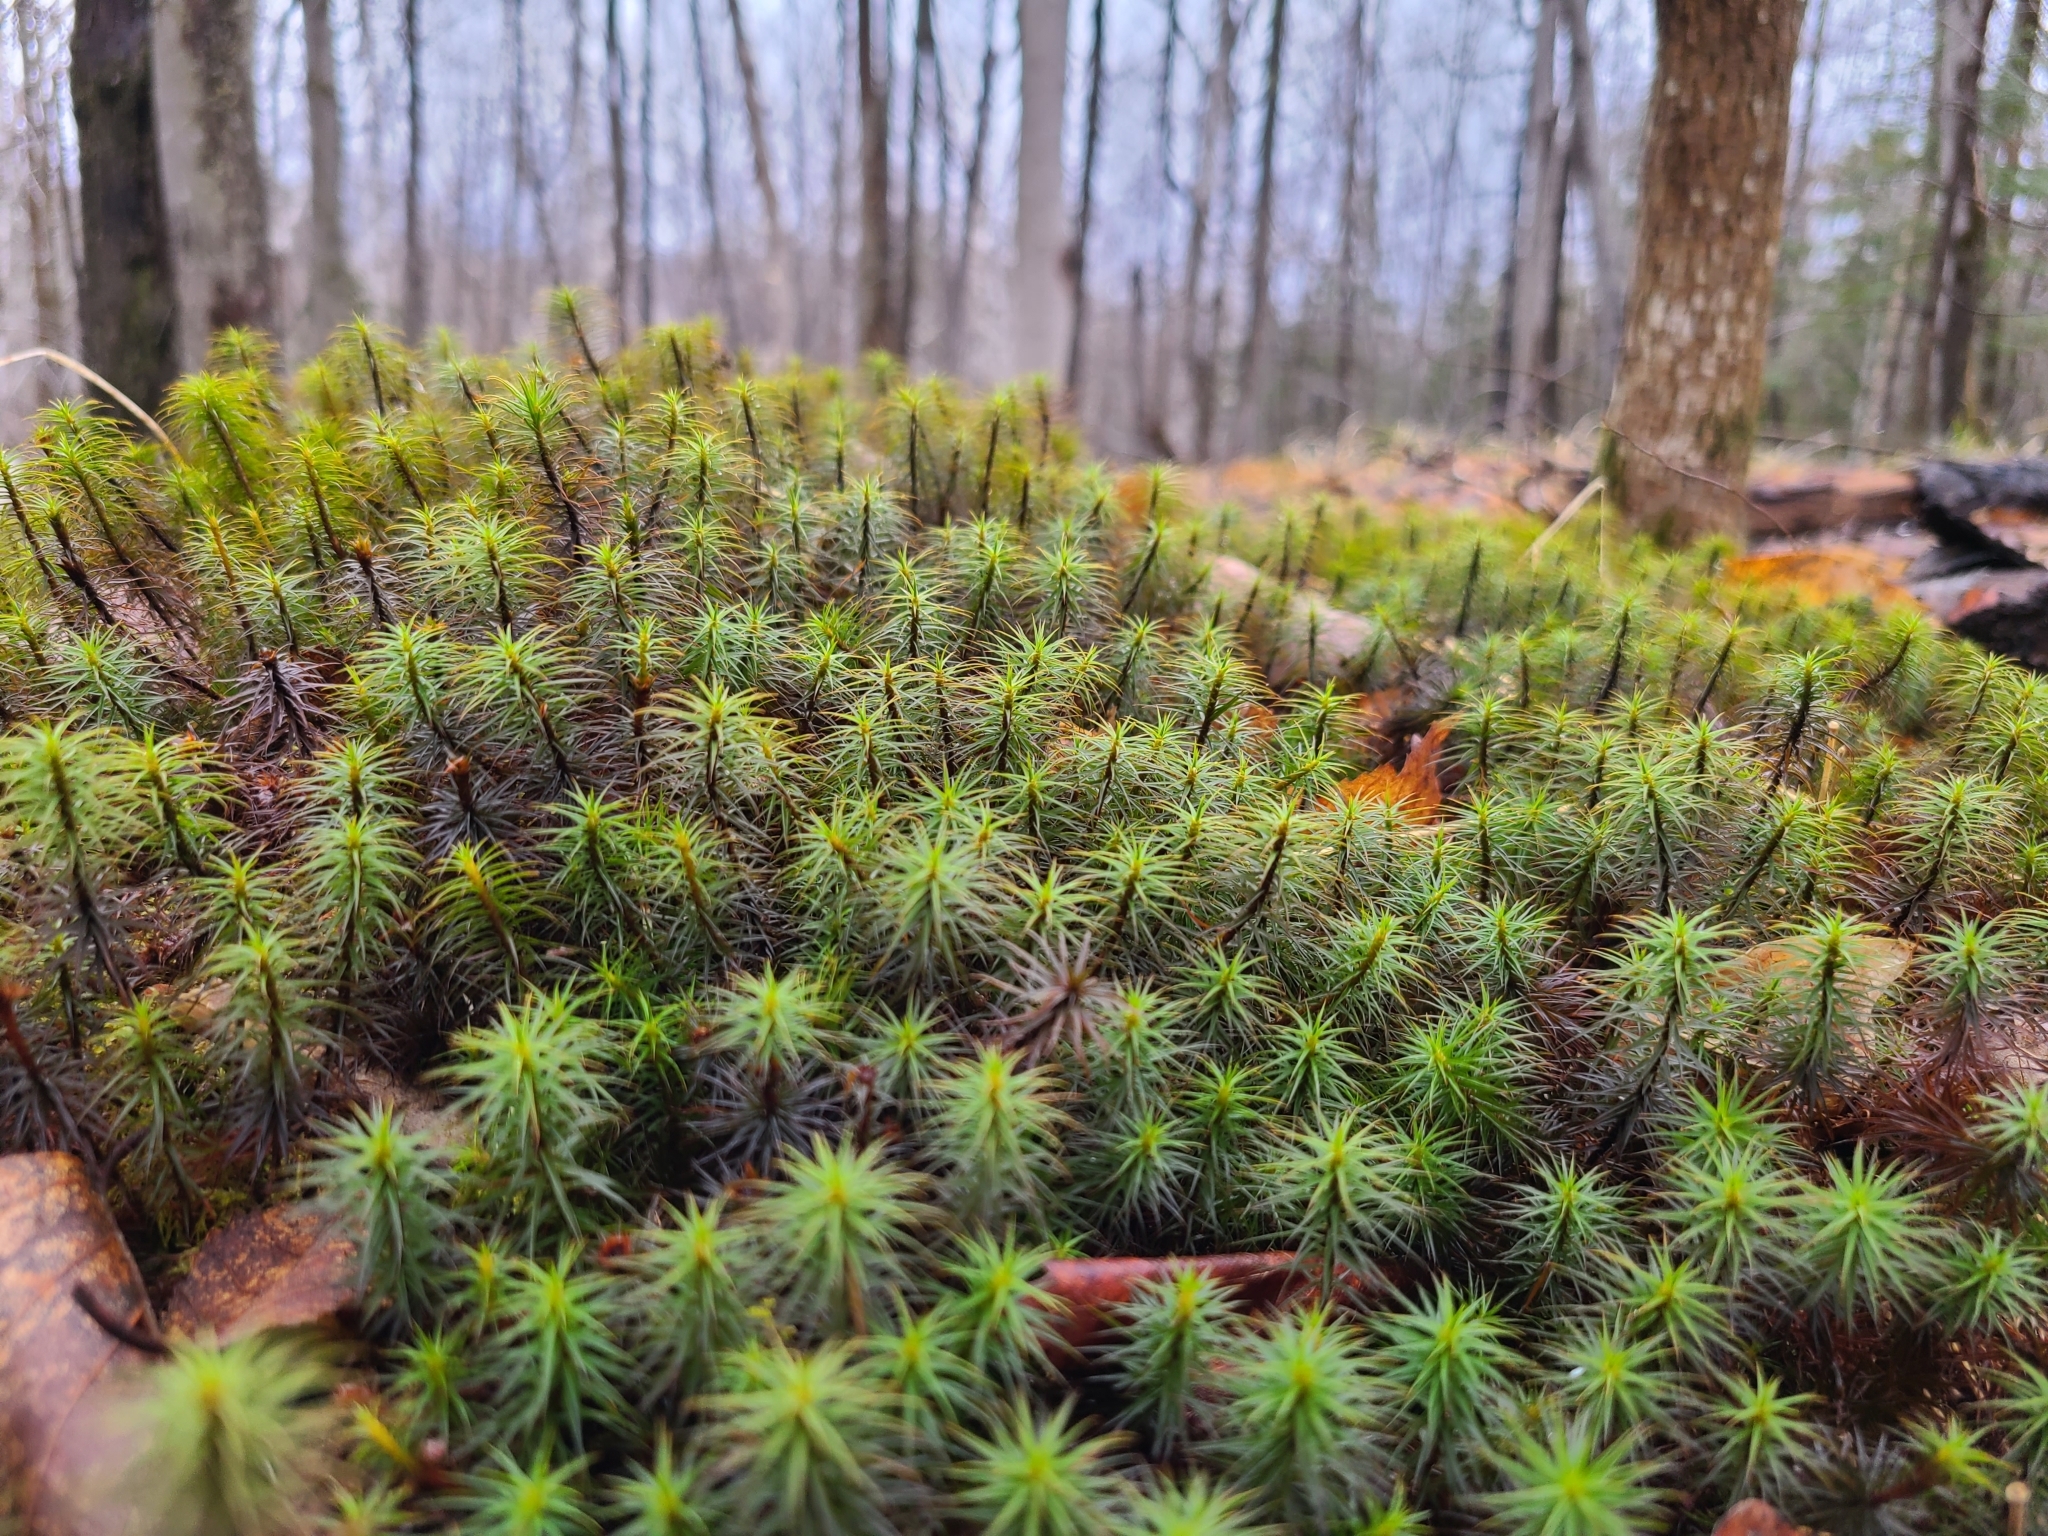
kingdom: Plantae
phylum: Bryophyta
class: Polytrichopsida
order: Polytrichales
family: Polytrichaceae
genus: Polytrichum
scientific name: Polytrichum commune
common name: Common haircap
